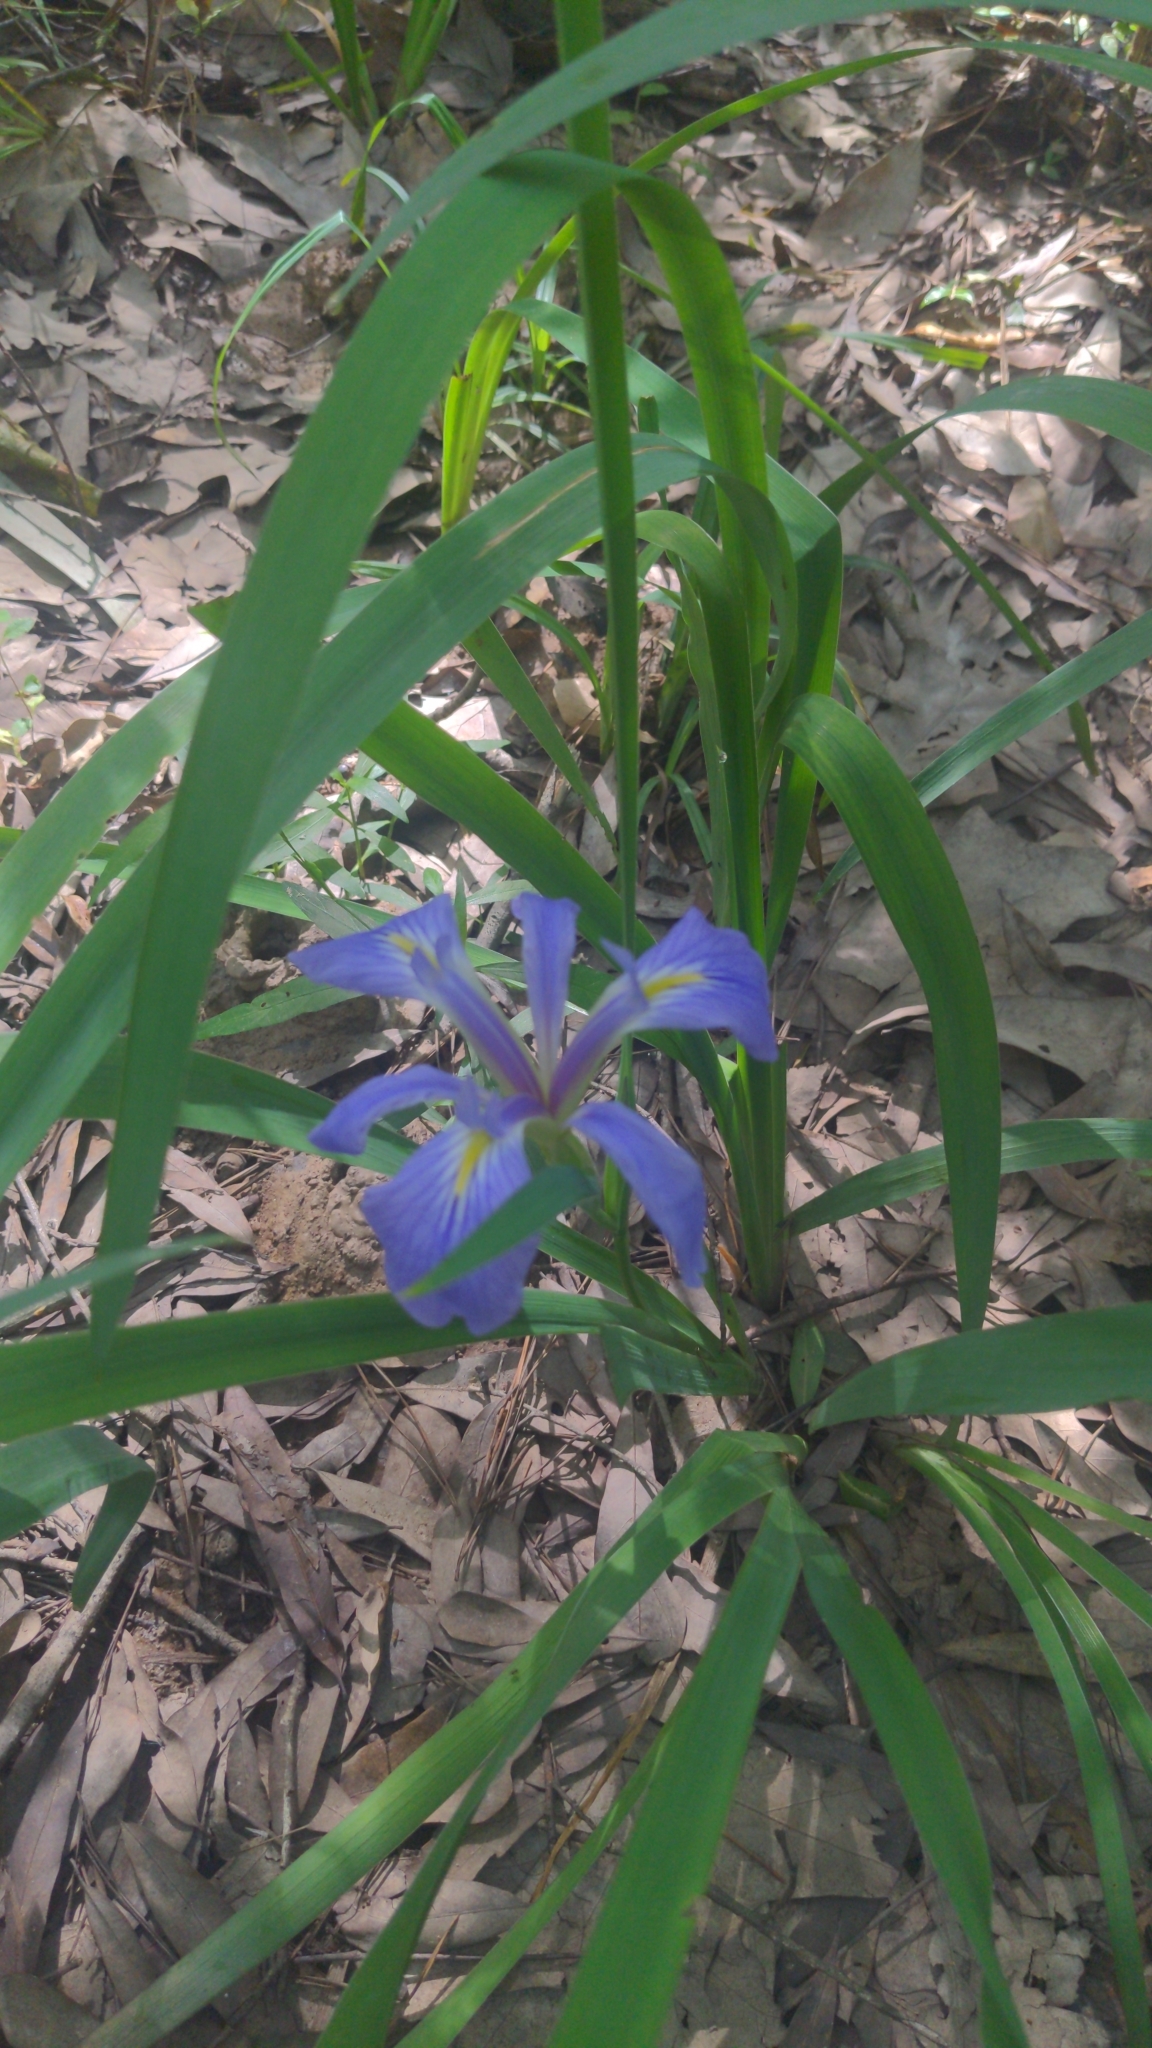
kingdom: Plantae
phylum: Tracheophyta
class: Liliopsida
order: Asparagales
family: Iridaceae
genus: Iris
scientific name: Iris brevicaulis
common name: Zigzag iris
